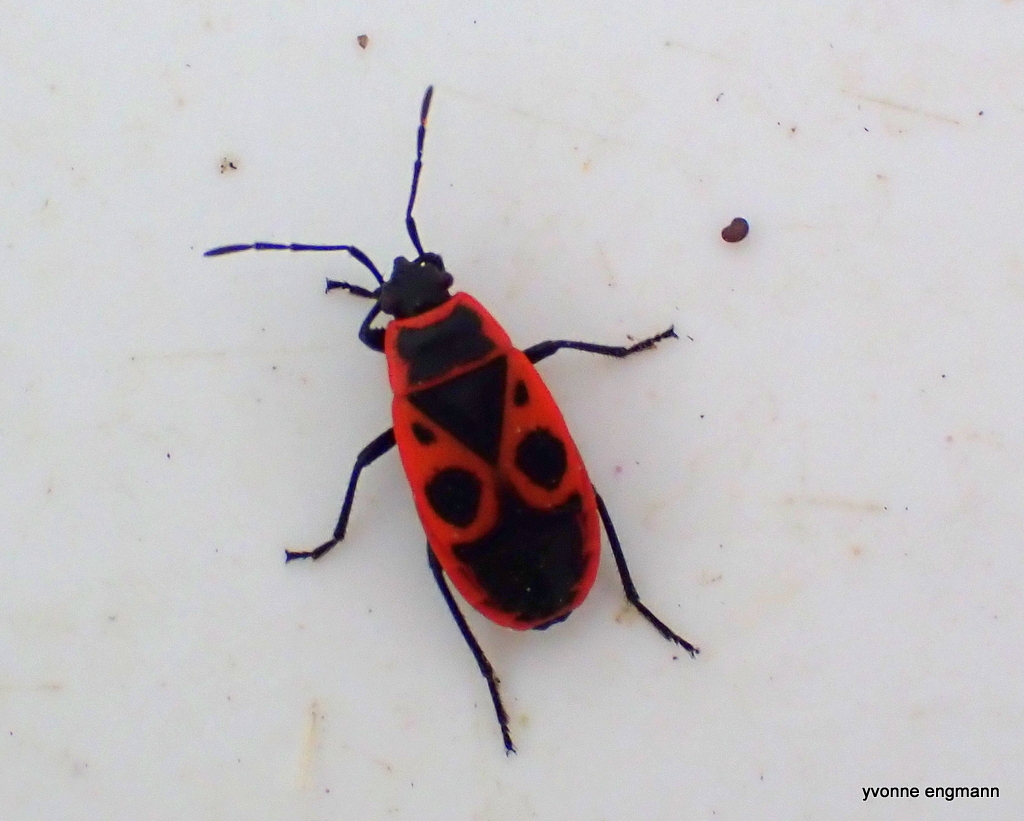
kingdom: Animalia
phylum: Arthropoda
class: Insecta
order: Hemiptera
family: Pyrrhocoridae
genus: Pyrrhocoris
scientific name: Pyrrhocoris apterus
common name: Firebug
